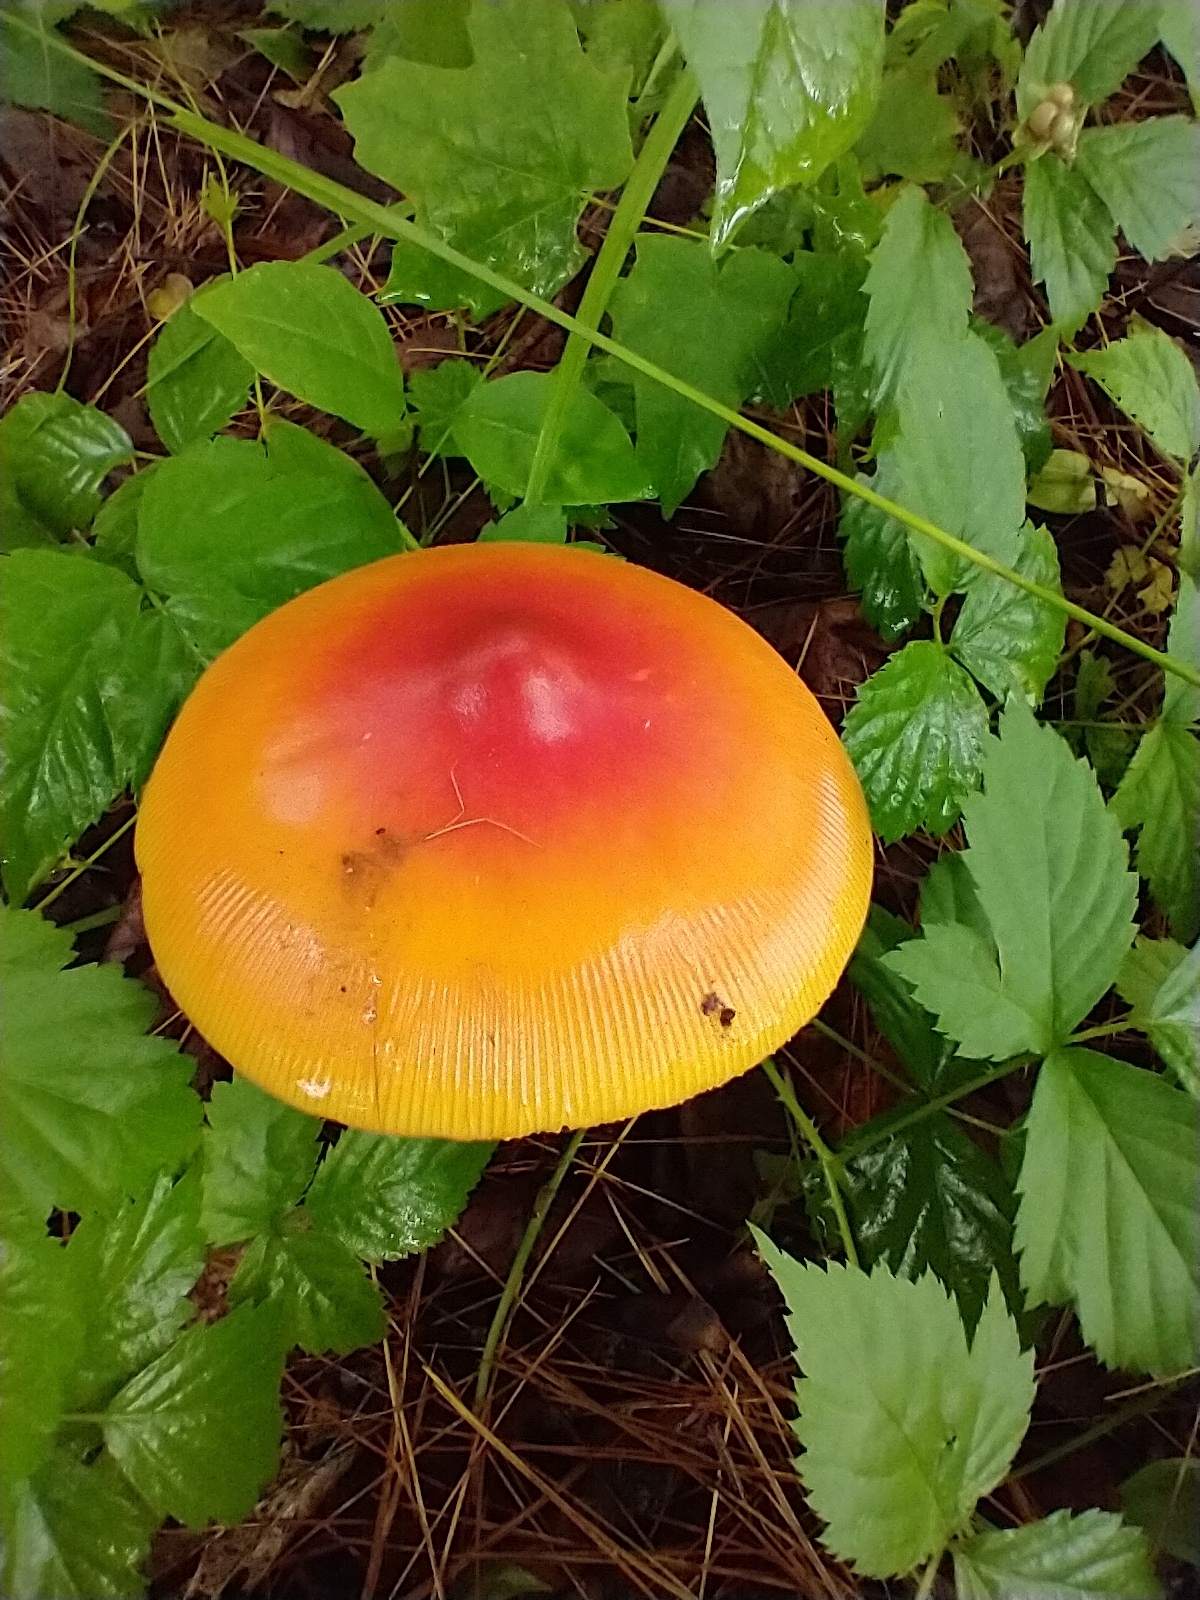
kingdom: Fungi
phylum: Basidiomycota
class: Agaricomycetes
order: Agaricales
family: Amanitaceae
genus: Amanita
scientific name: Amanita jacksonii
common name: Jackson's slender caesar
